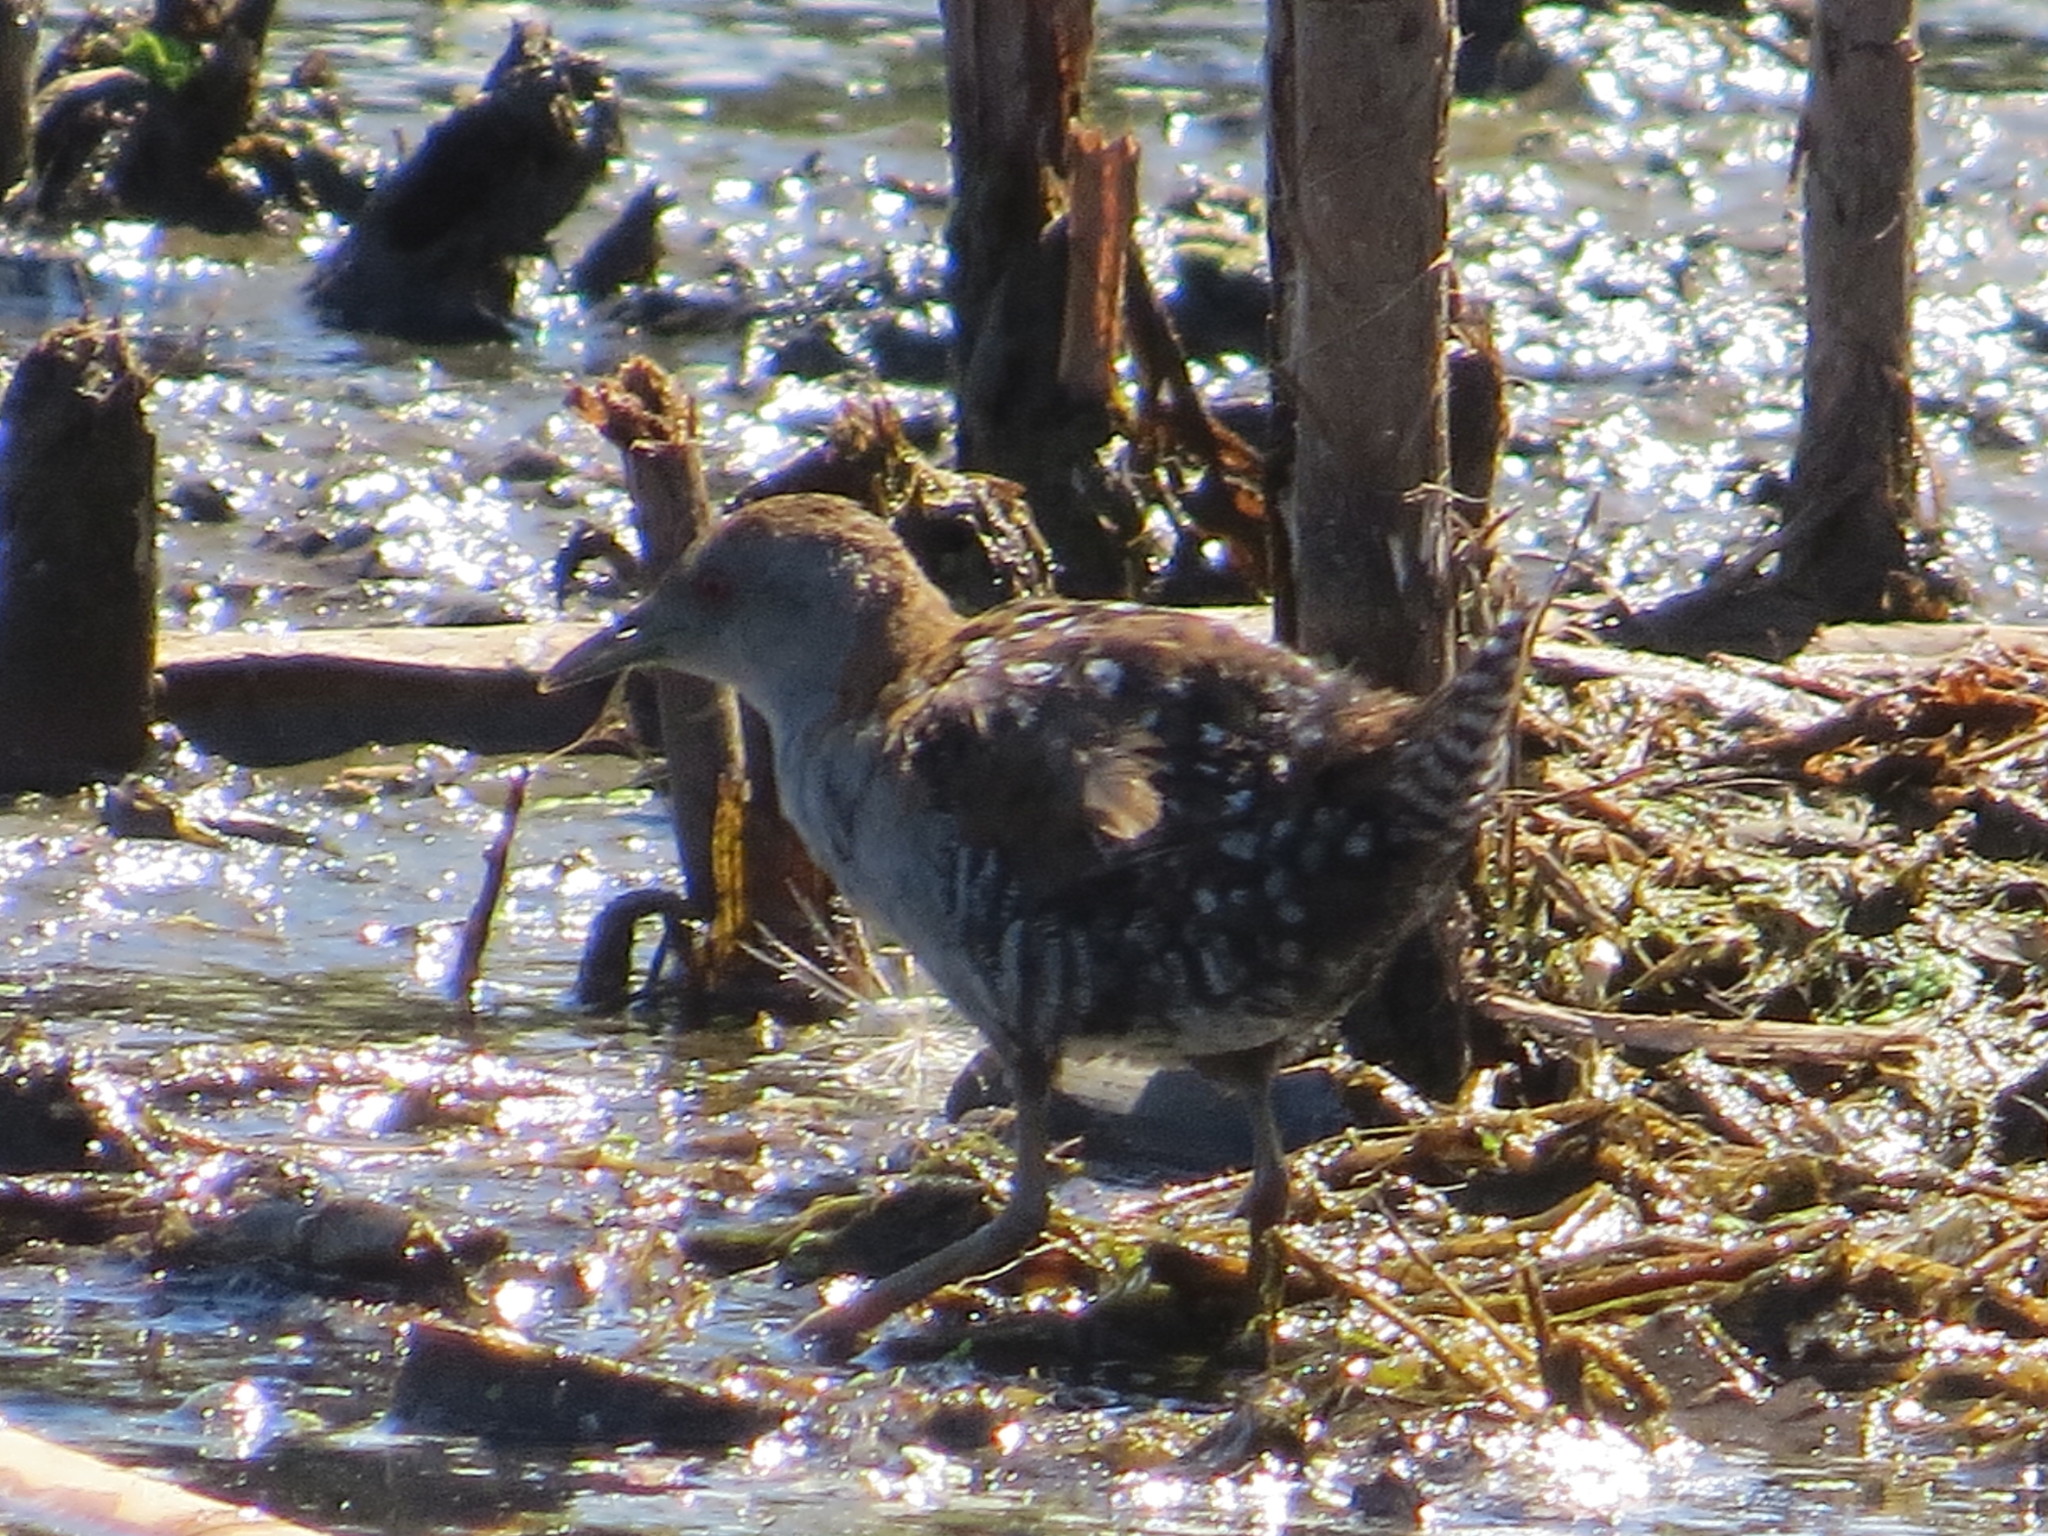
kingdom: Animalia
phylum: Chordata
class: Aves
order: Gruiformes
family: Rallidae
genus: Porzana
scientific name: Porzana pusilla
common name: Baillon's crake
